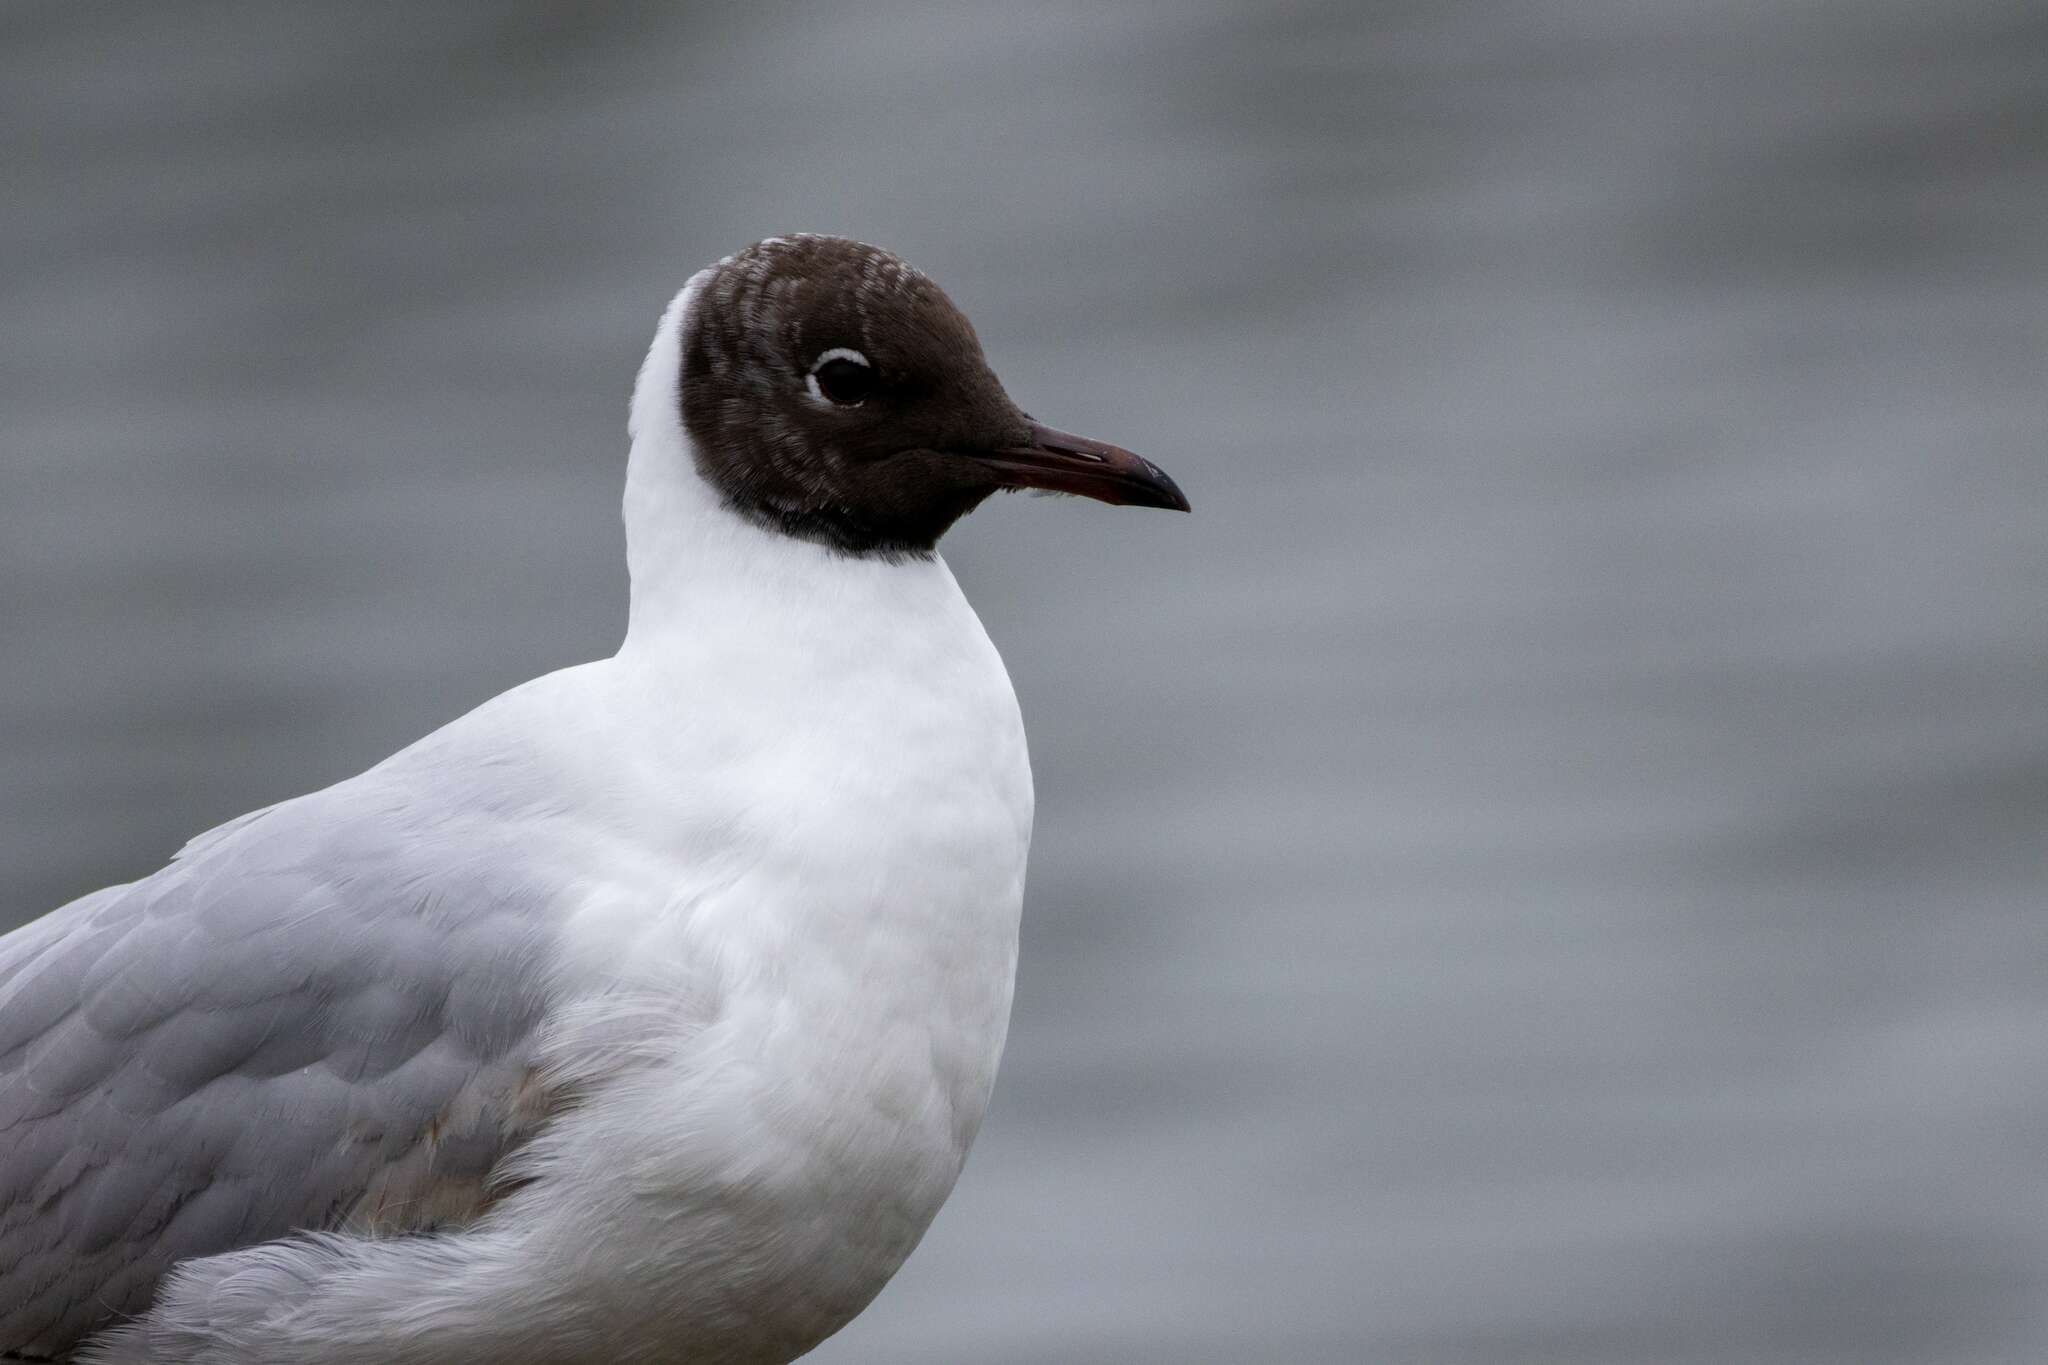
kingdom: Animalia
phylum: Chordata
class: Aves
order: Charadriiformes
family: Laridae
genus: Chroicocephalus
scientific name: Chroicocephalus ridibundus
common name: Black-headed gull
